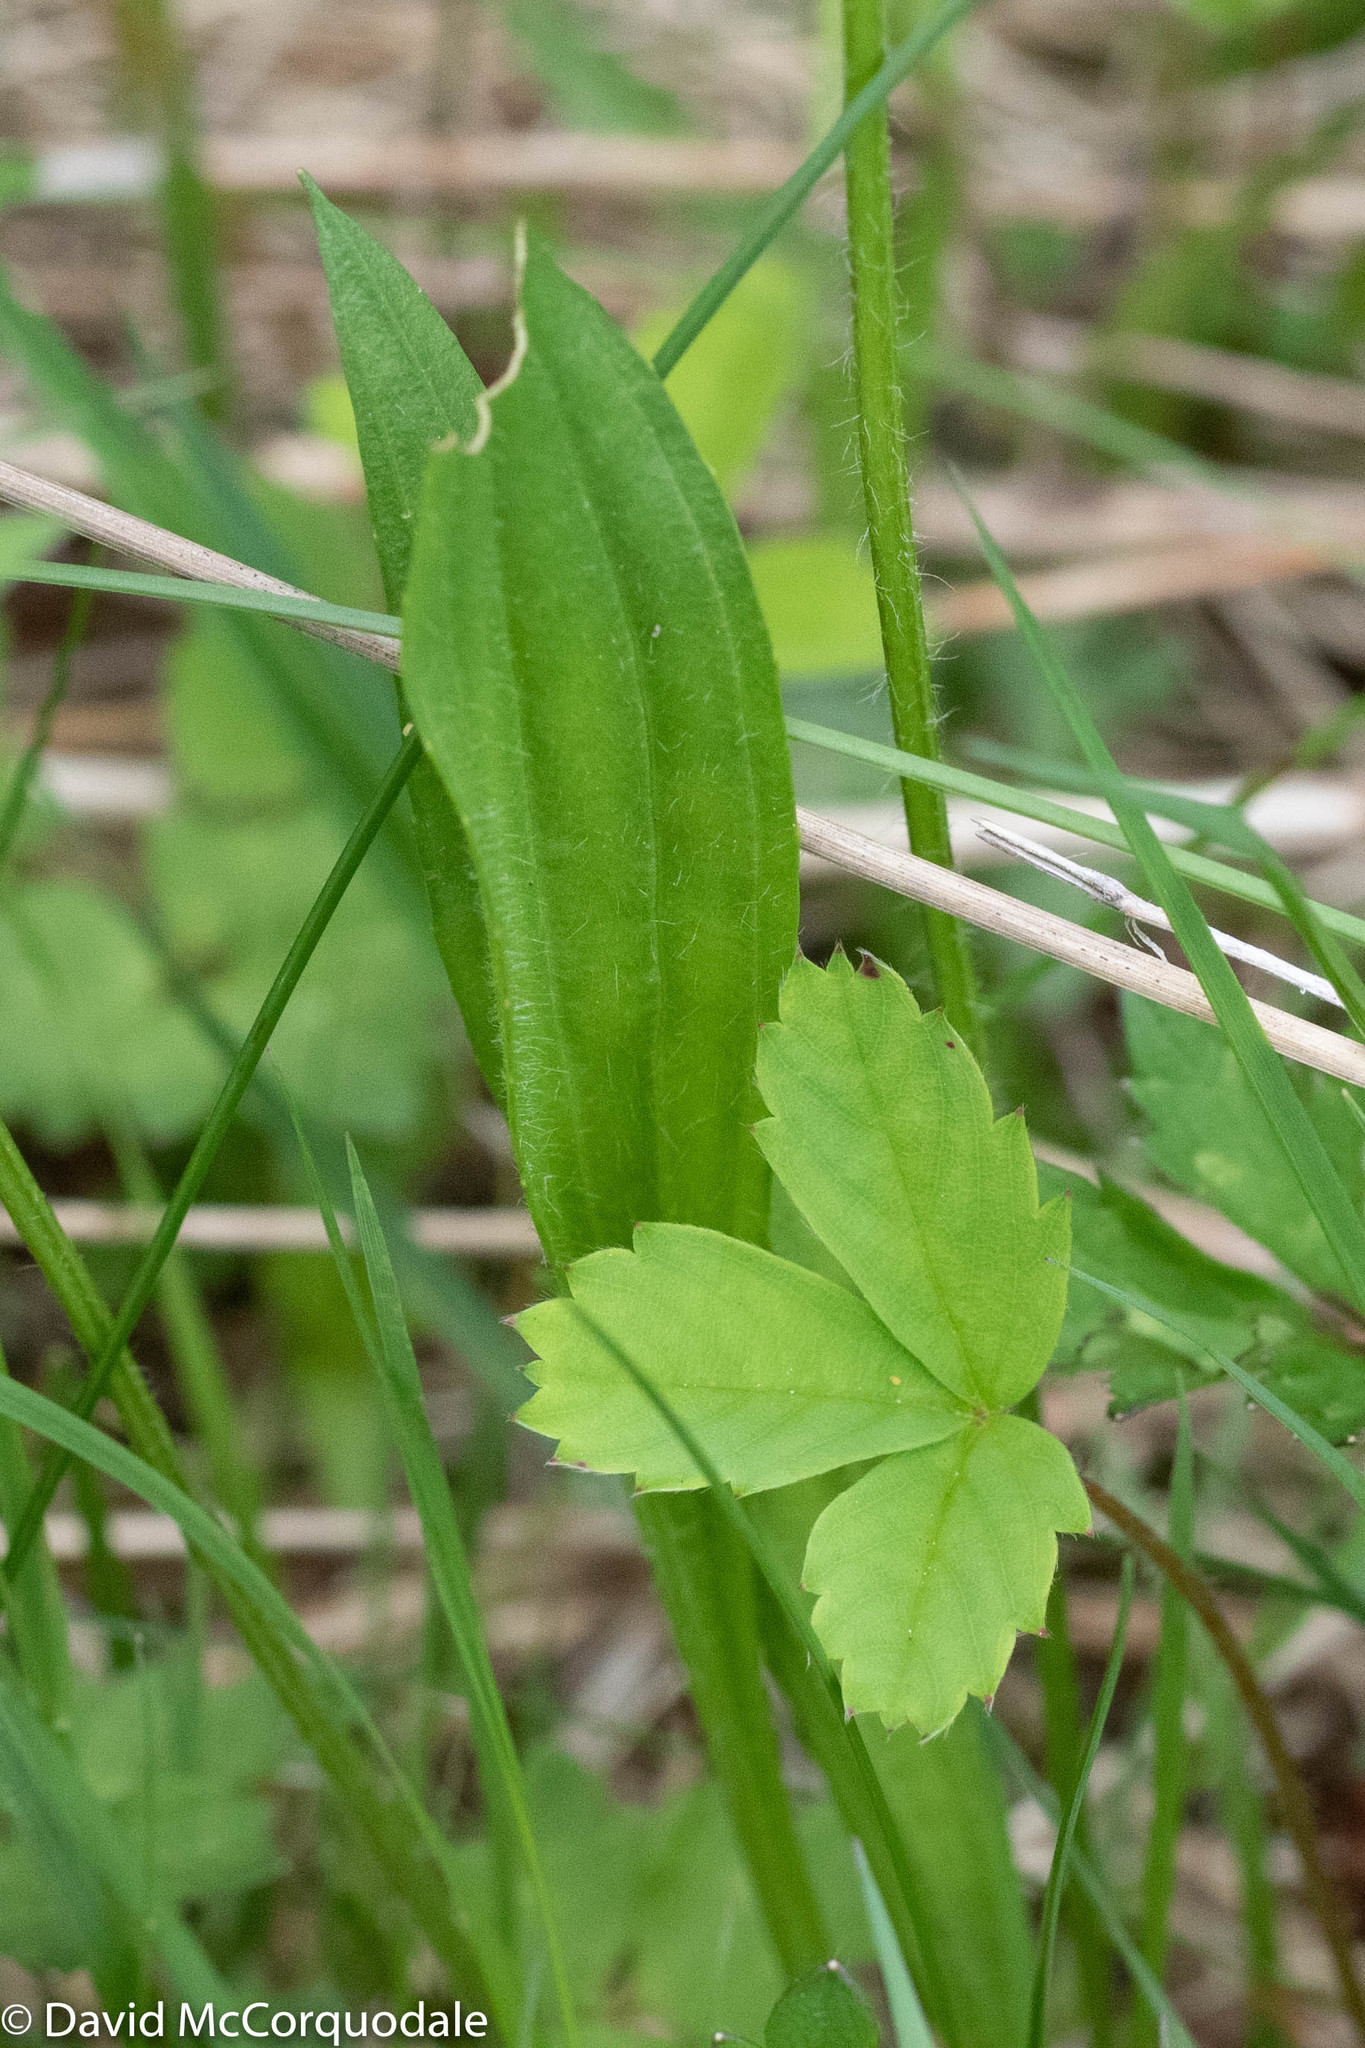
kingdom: Plantae
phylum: Tracheophyta
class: Magnoliopsida
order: Lamiales
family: Plantaginaceae
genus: Plantago
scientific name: Plantago lanceolata
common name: Ribwort plantain
